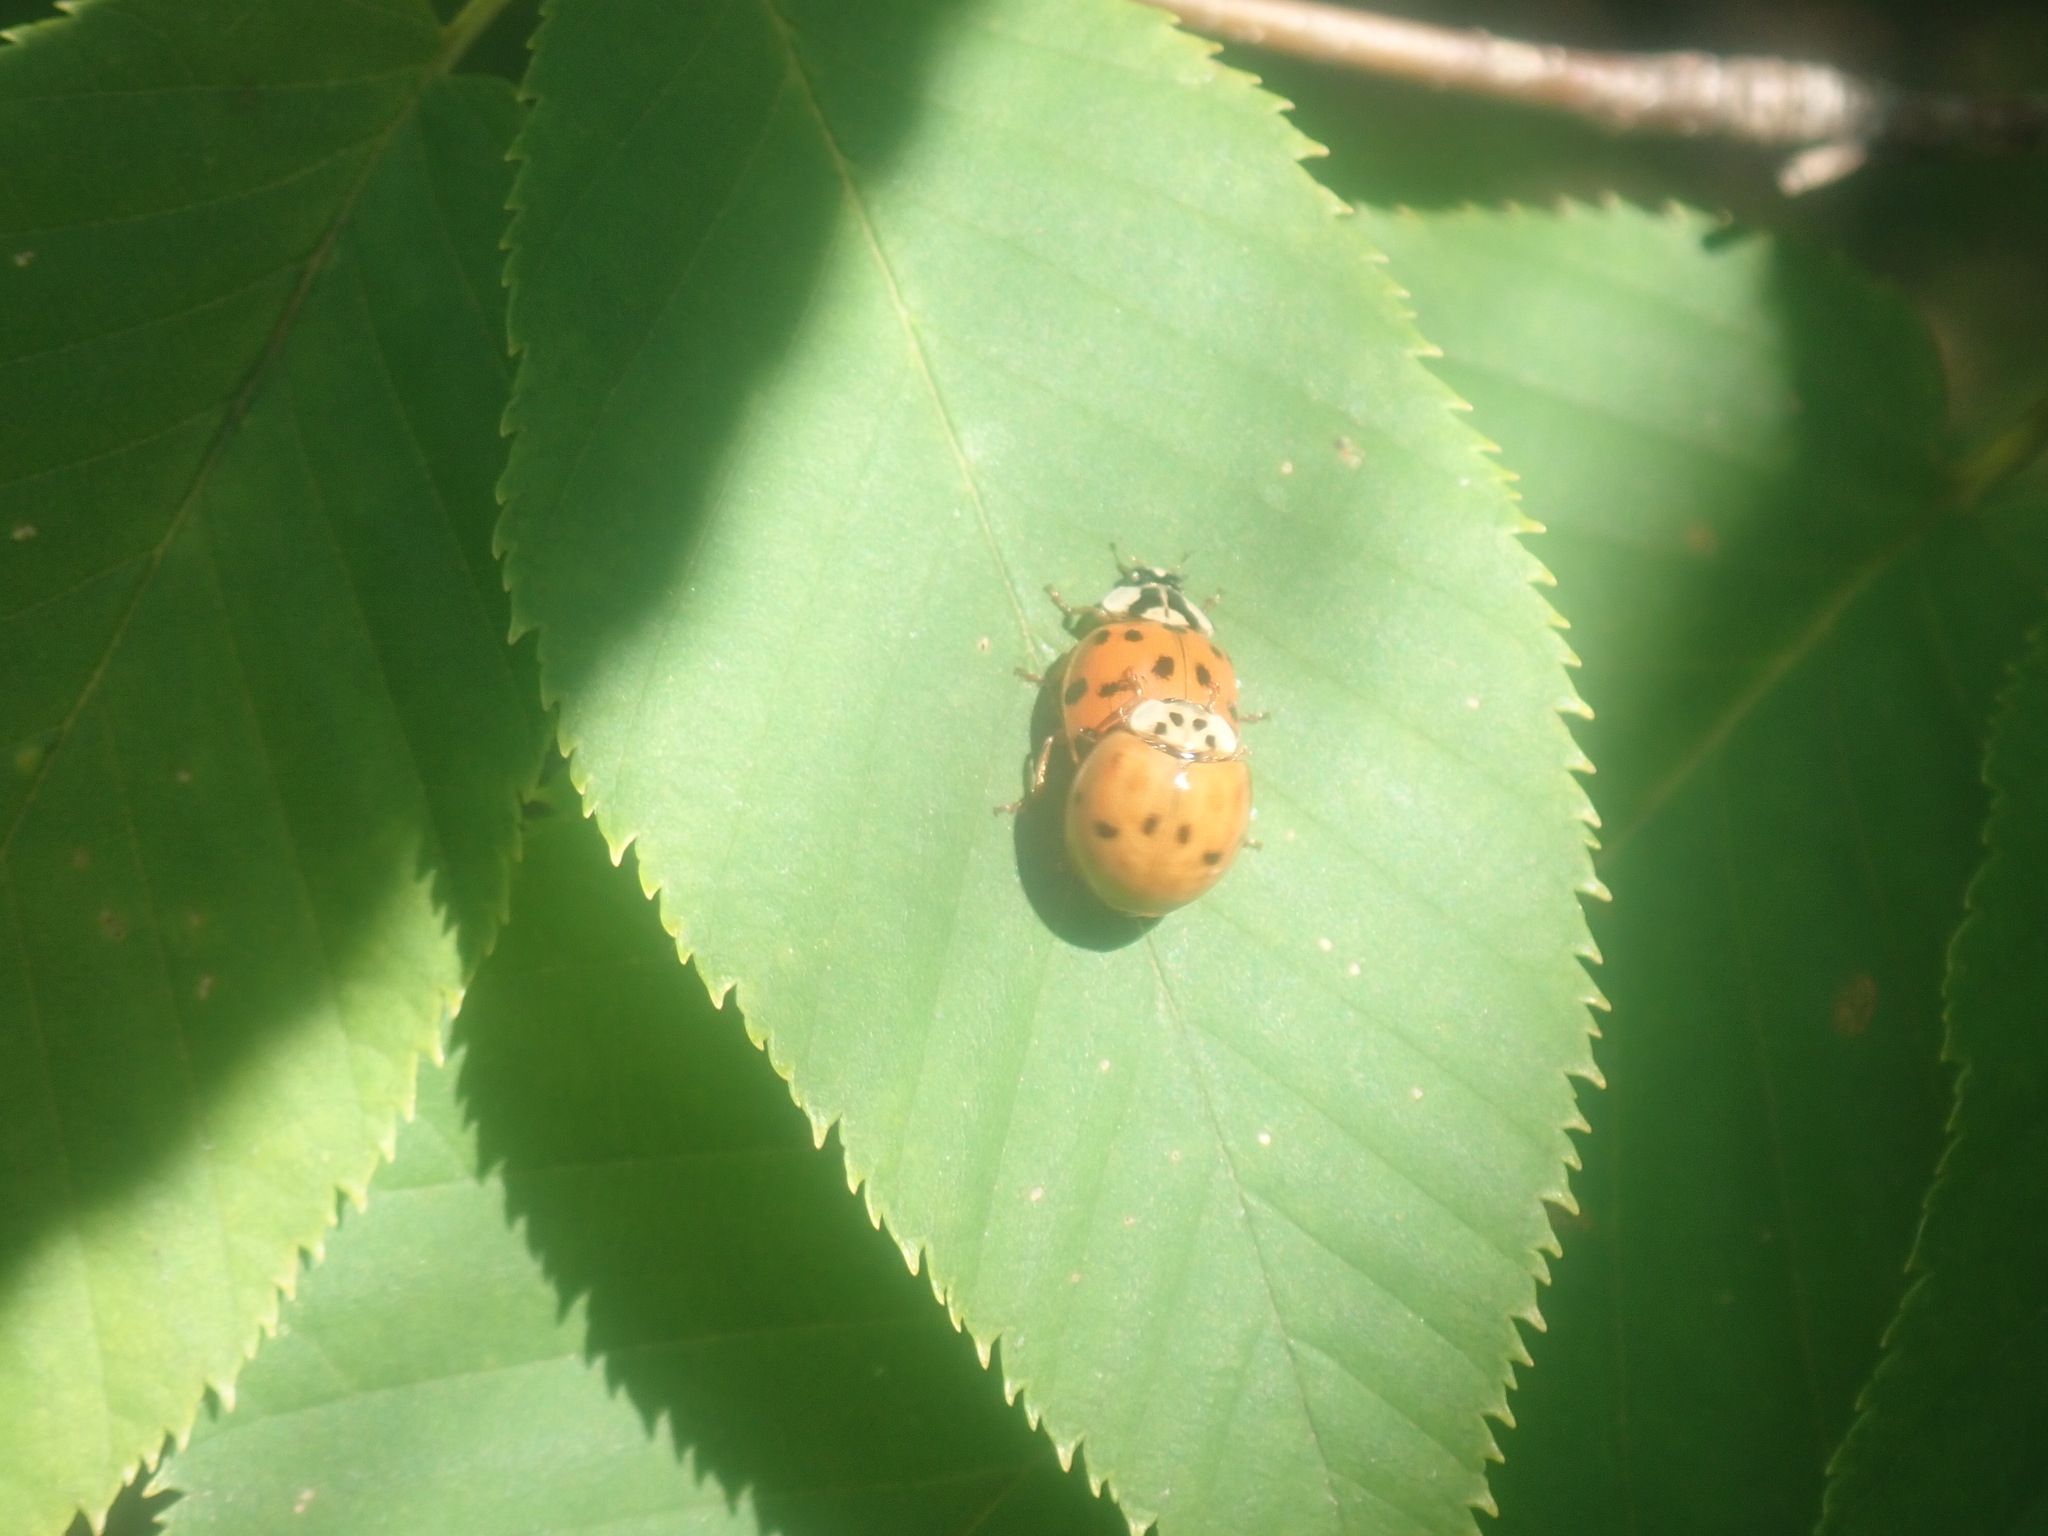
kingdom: Animalia
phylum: Arthropoda
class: Insecta
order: Coleoptera
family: Coccinellidae
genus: Harmonia
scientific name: Harmonia axyridis
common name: Harlequin ladybird
